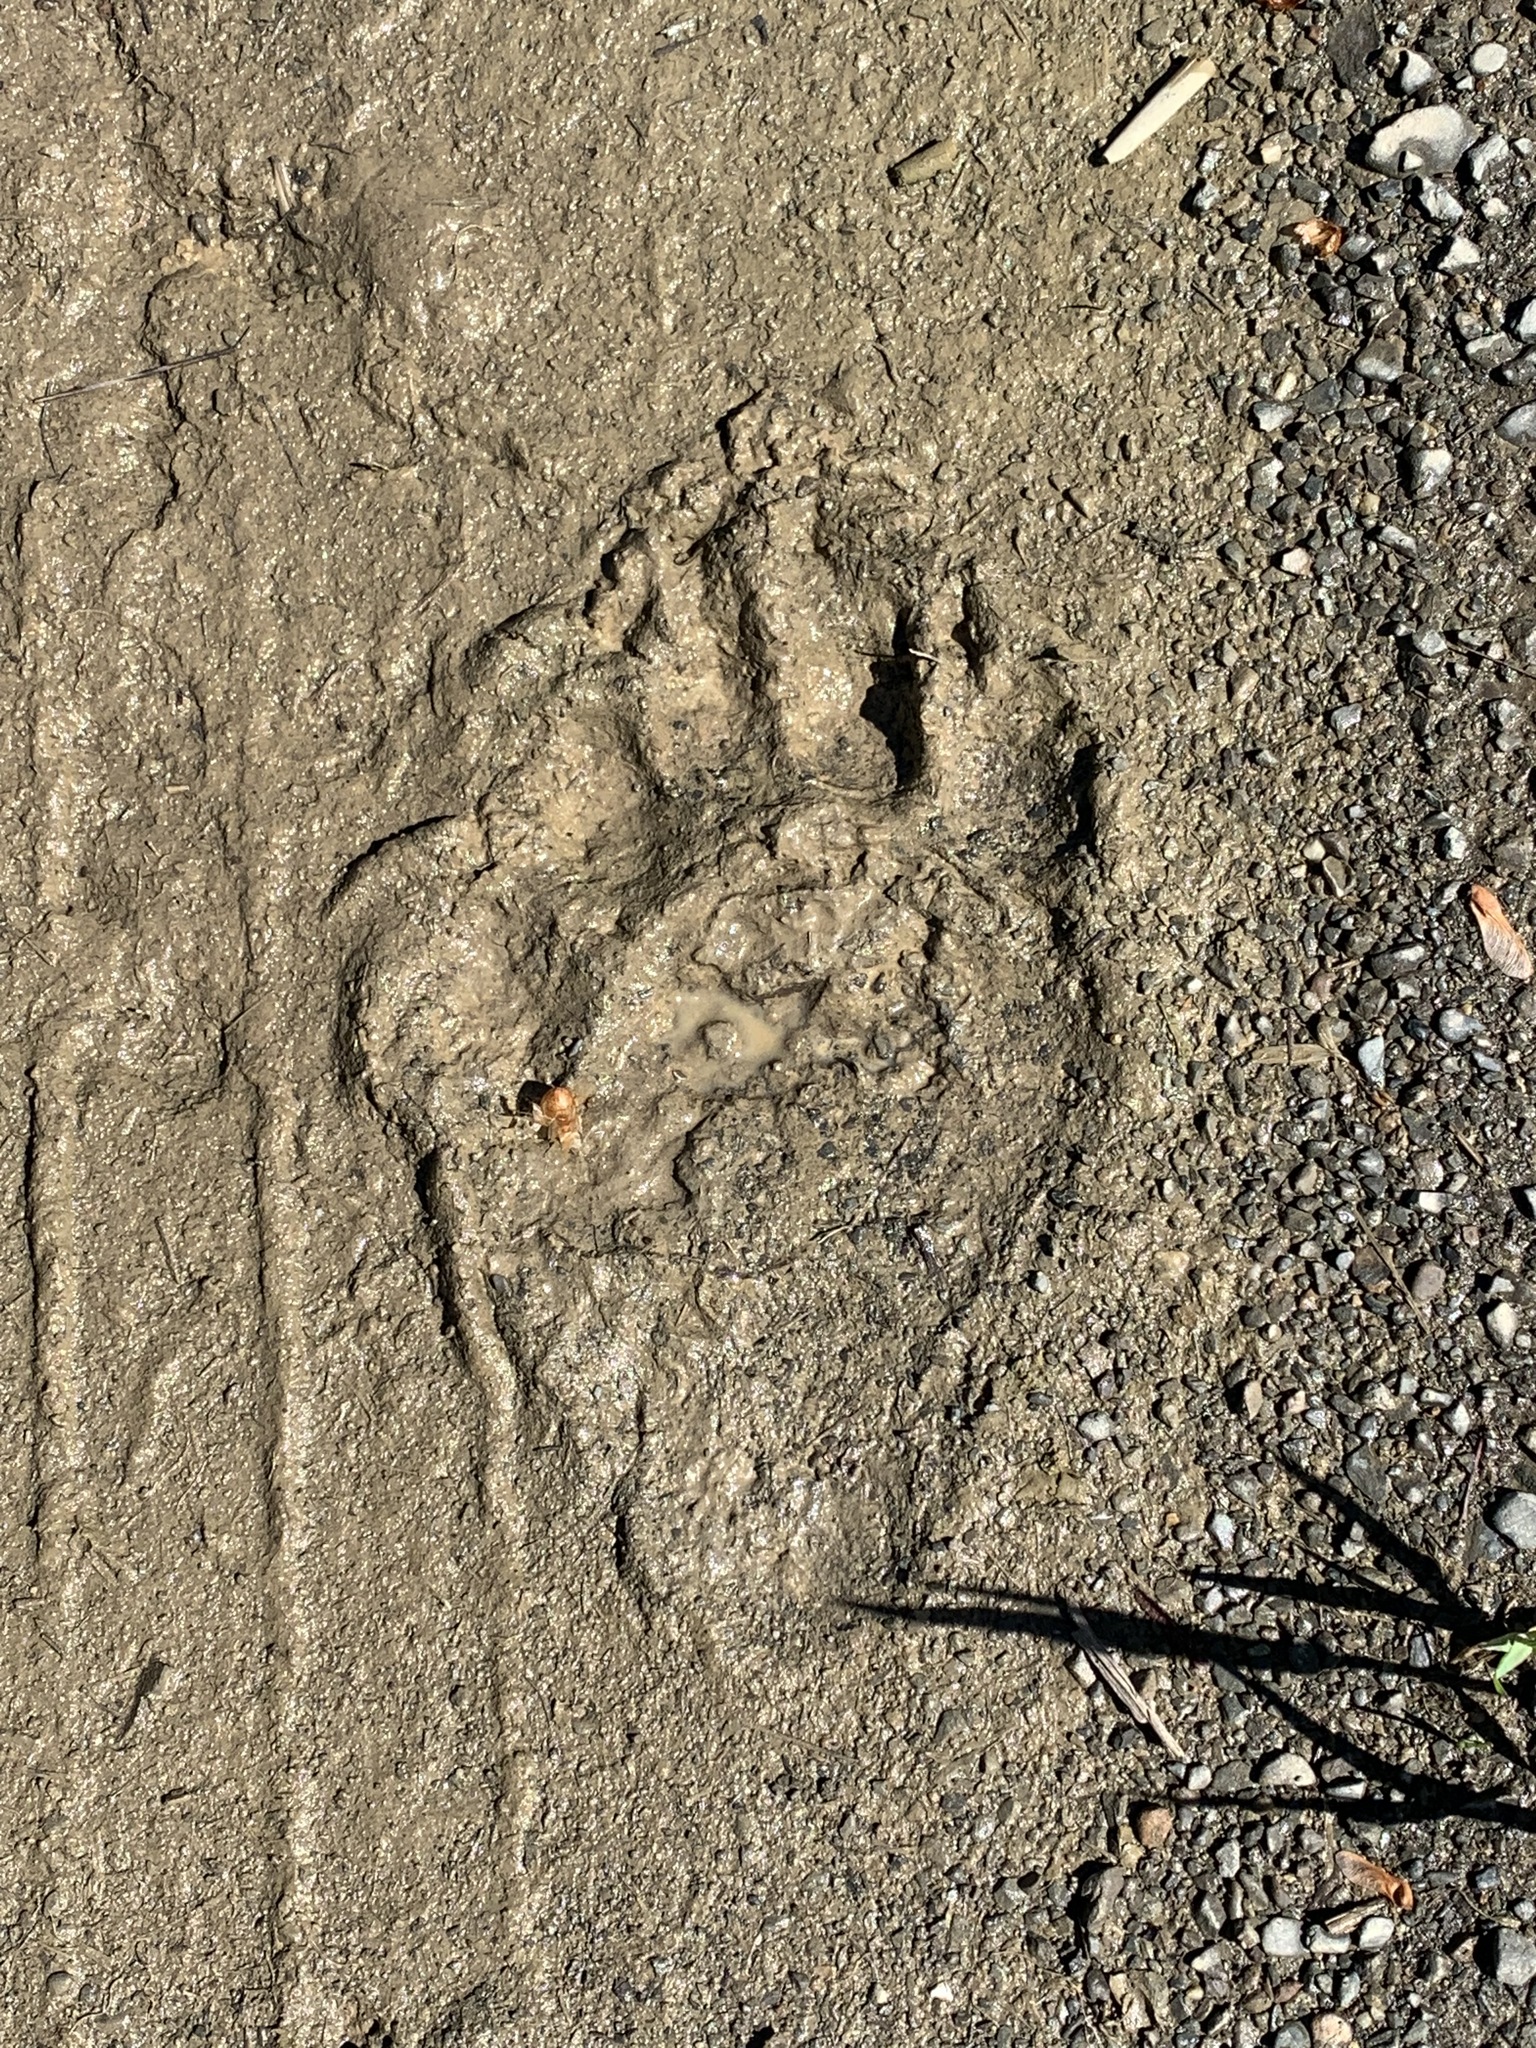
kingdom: Animalia
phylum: Chordata
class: Mammalia
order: Carnivora
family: Ursidae
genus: Ursus
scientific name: Ursus americanus
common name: American black bear
